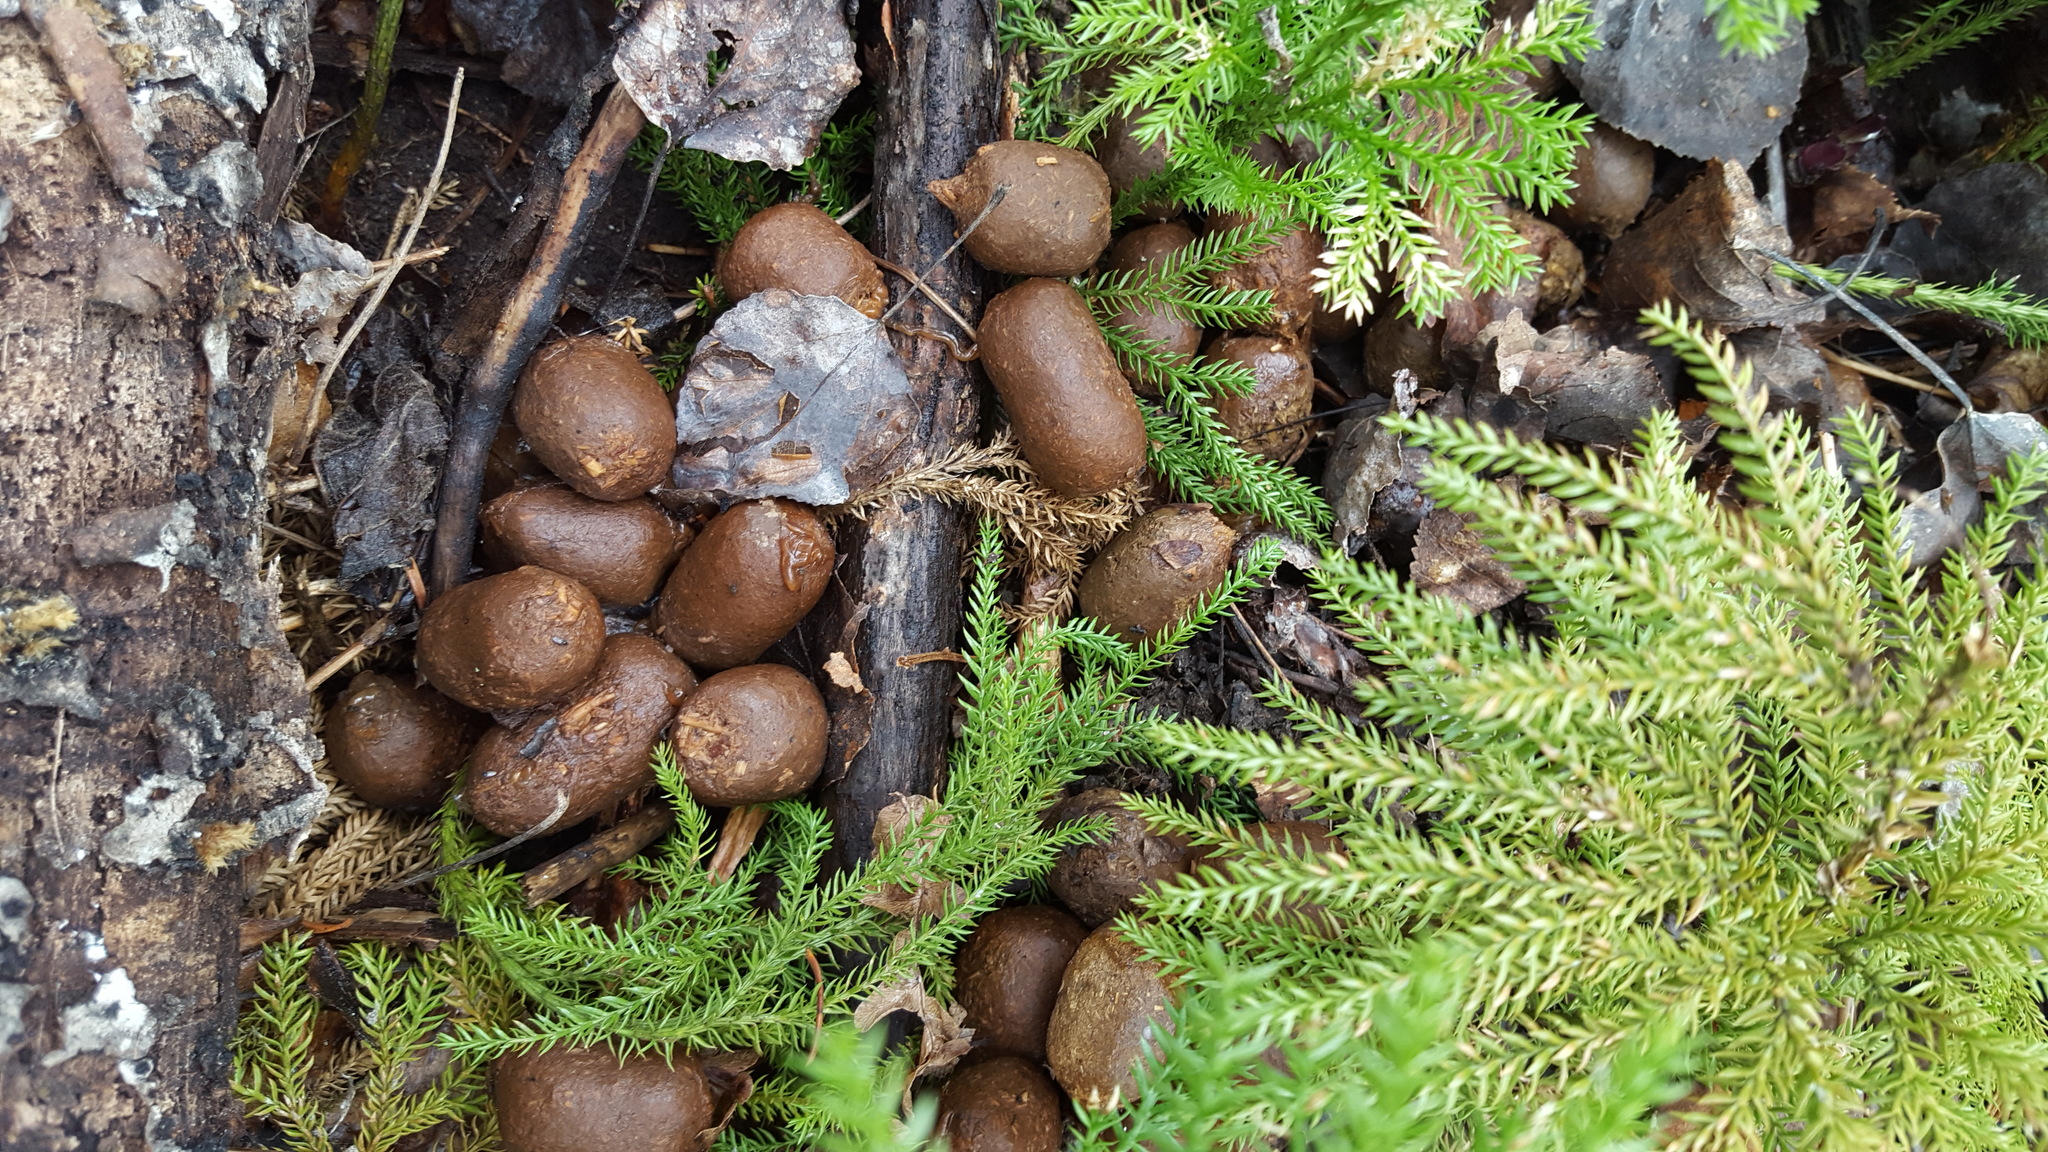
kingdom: Animalia
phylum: Chordata
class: Mammalia
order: Artiodactyla
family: Cervidae
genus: Alces
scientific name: Alces alces
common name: Moose
